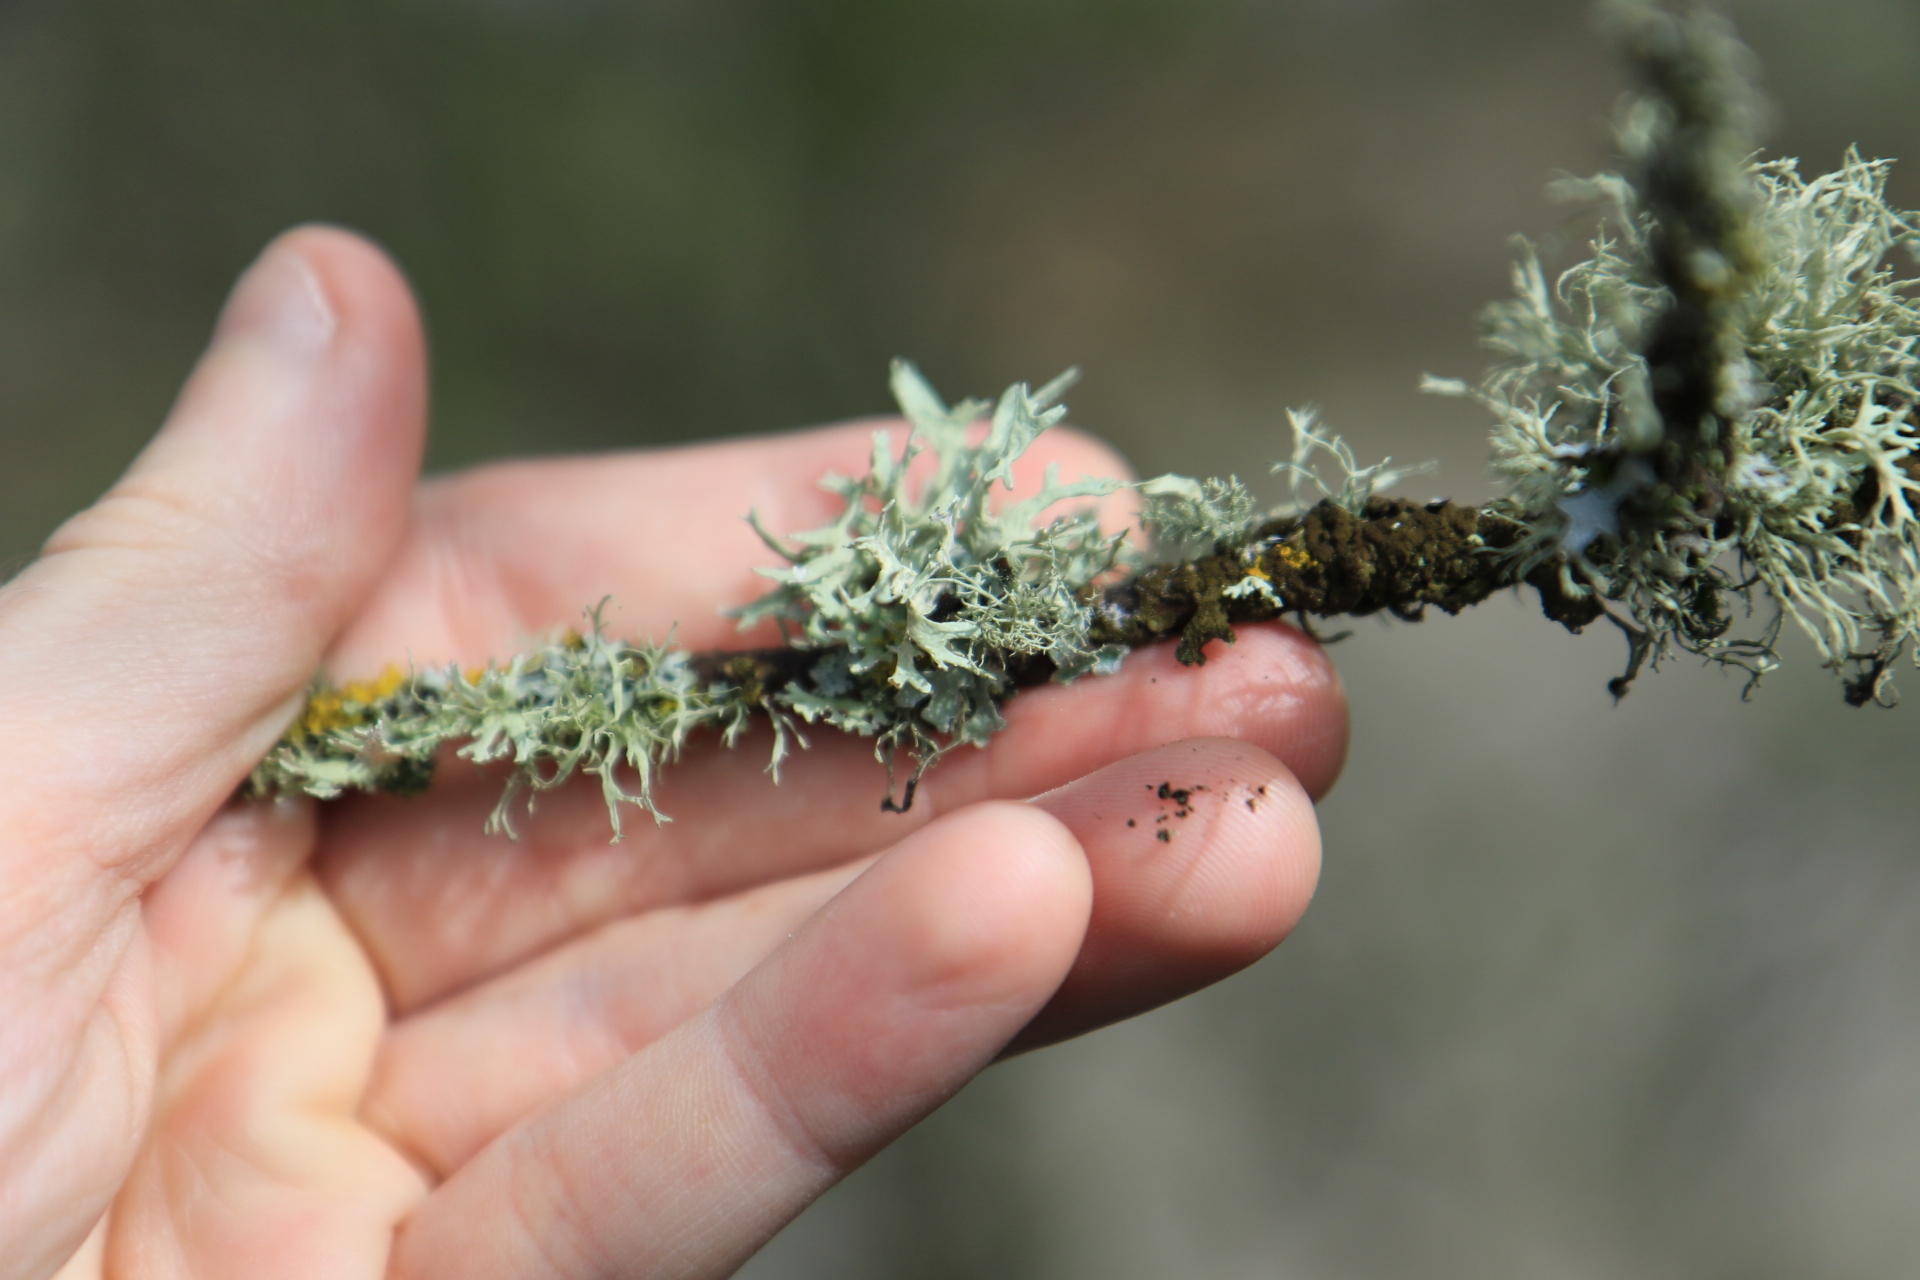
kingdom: Fungi
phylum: Ascomycota
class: Lecanoromycetes
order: Lecanorales
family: Parmeliaceae
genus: Evernia
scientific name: Evernia prunastri
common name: Oak moss
